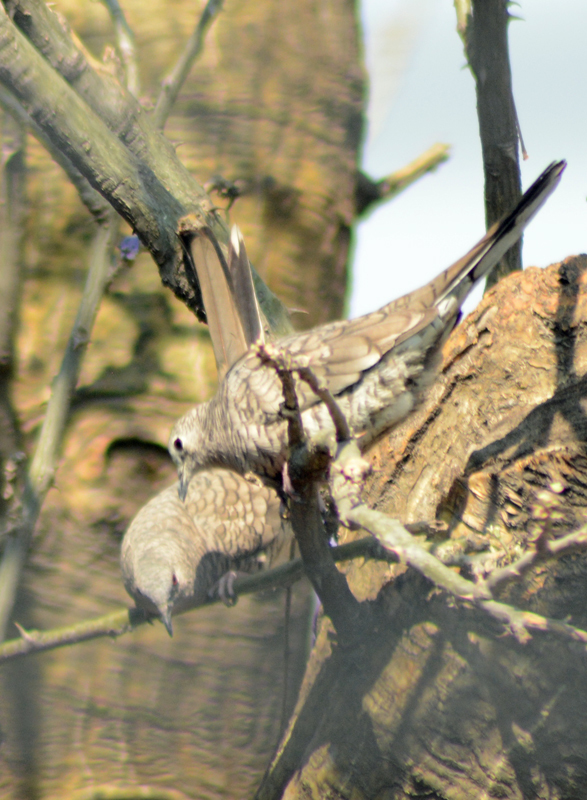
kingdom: Animalia
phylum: Chordata
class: Aves
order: Columbiformes
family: Columbidae
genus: Columbina
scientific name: Columbina inca
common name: Inca dove
